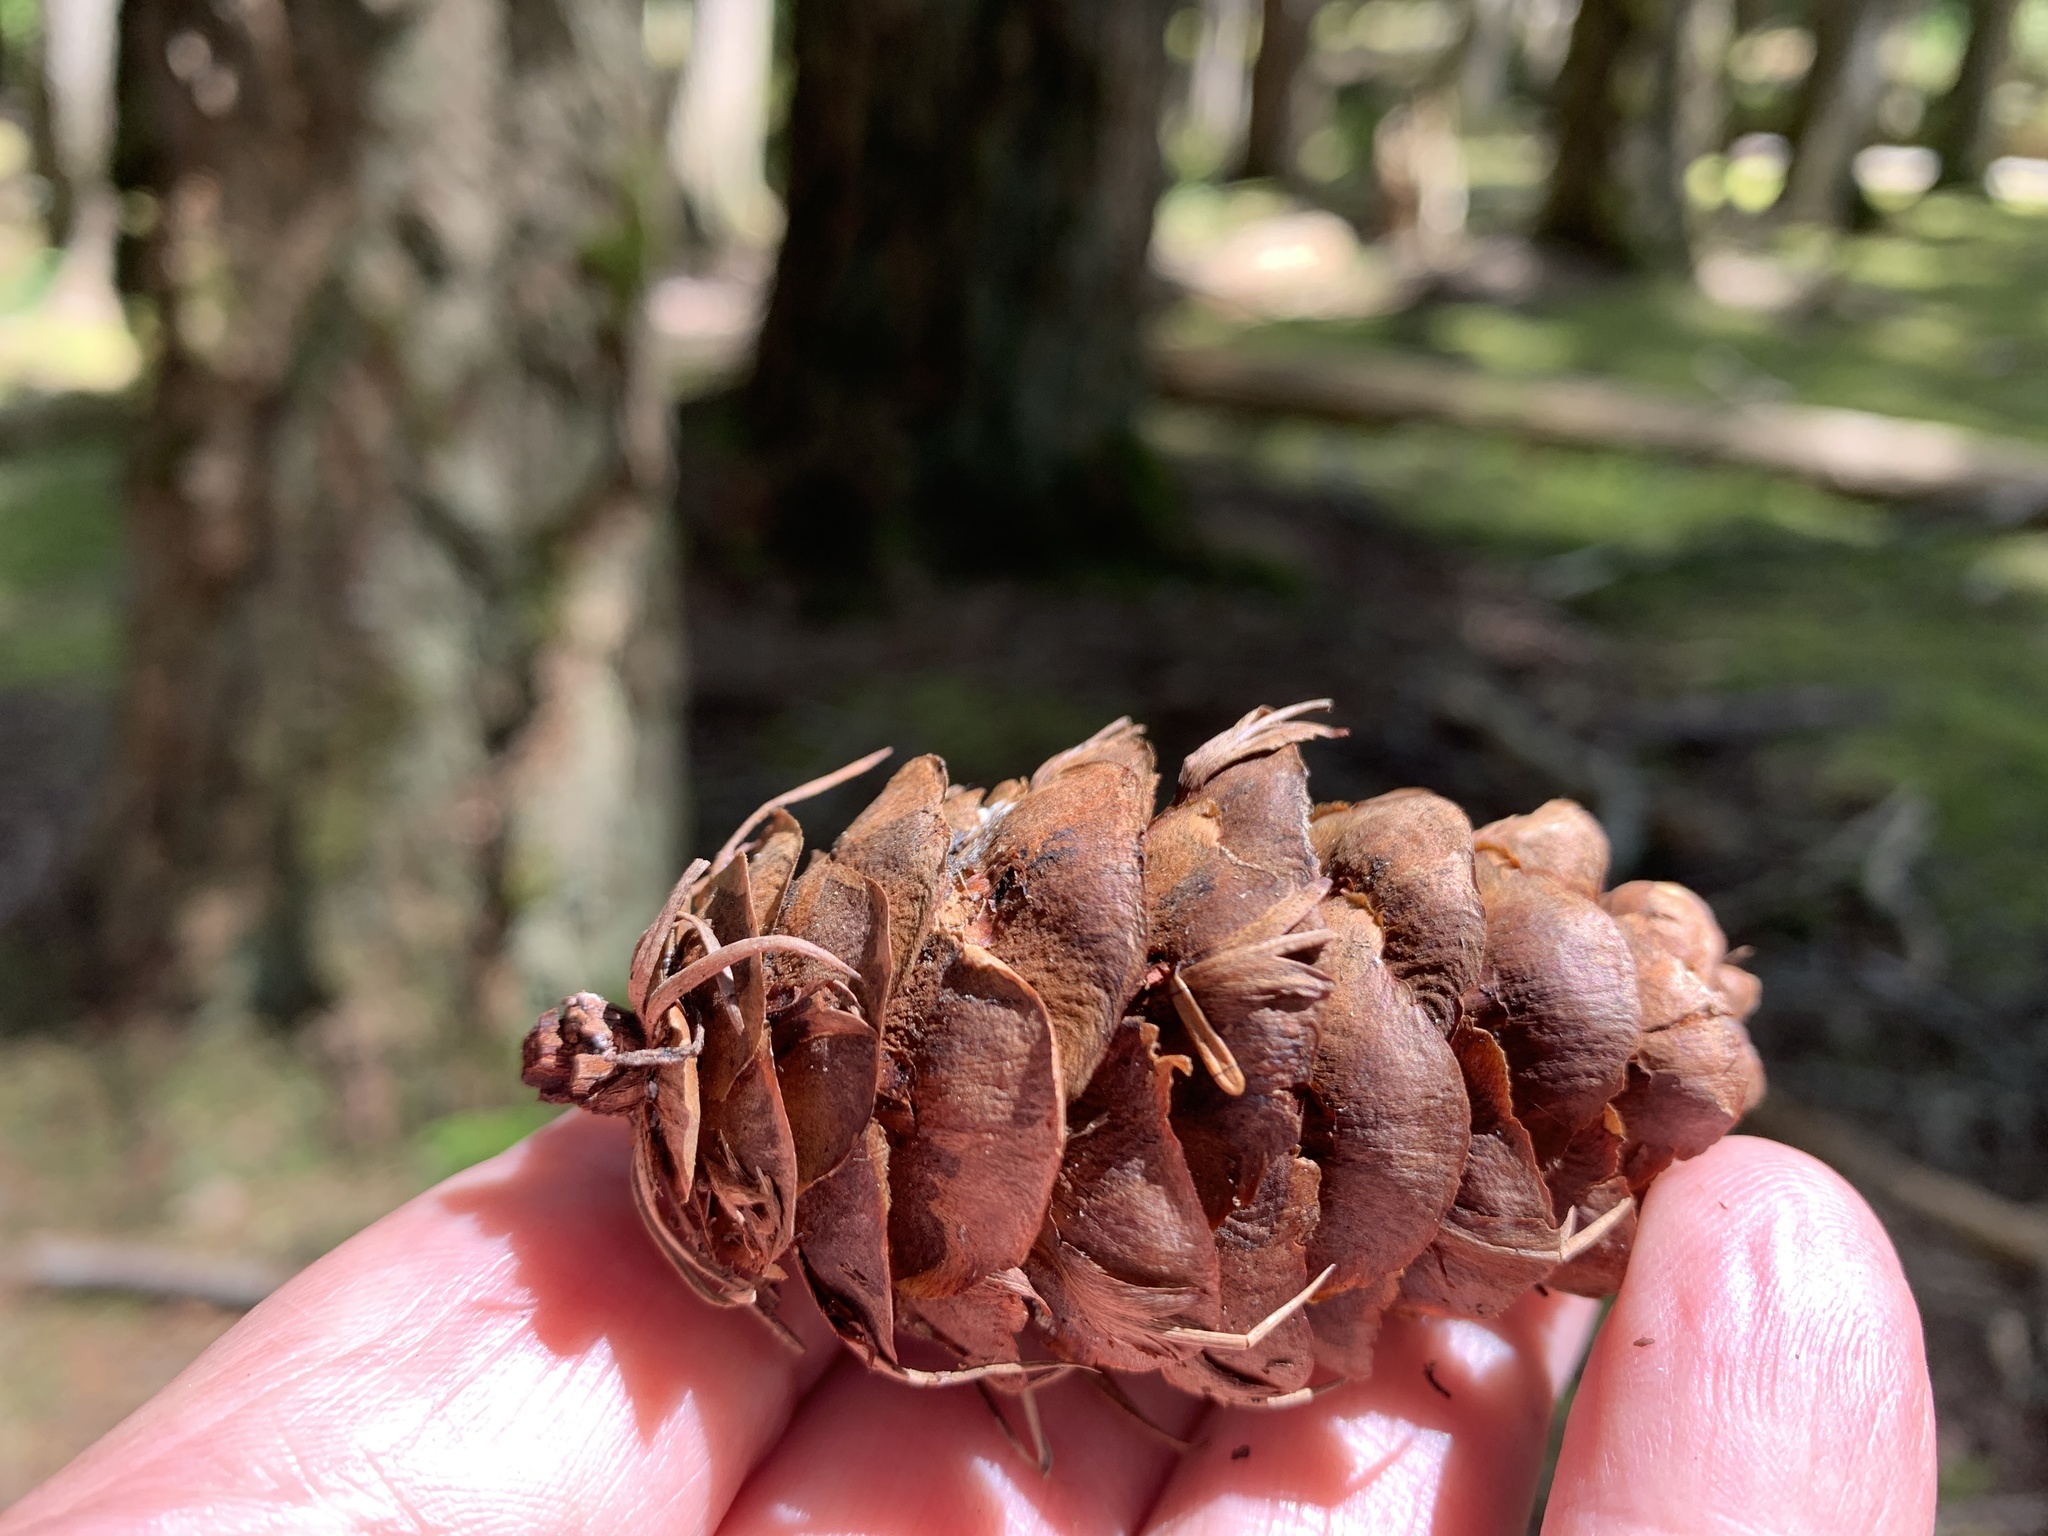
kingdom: Plantae
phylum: Tracheophyta
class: Pinopsida
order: Pinales
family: Pinaceae
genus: Pseudotsuga
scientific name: Pseudotsuga menziesii
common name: Douglas fir
